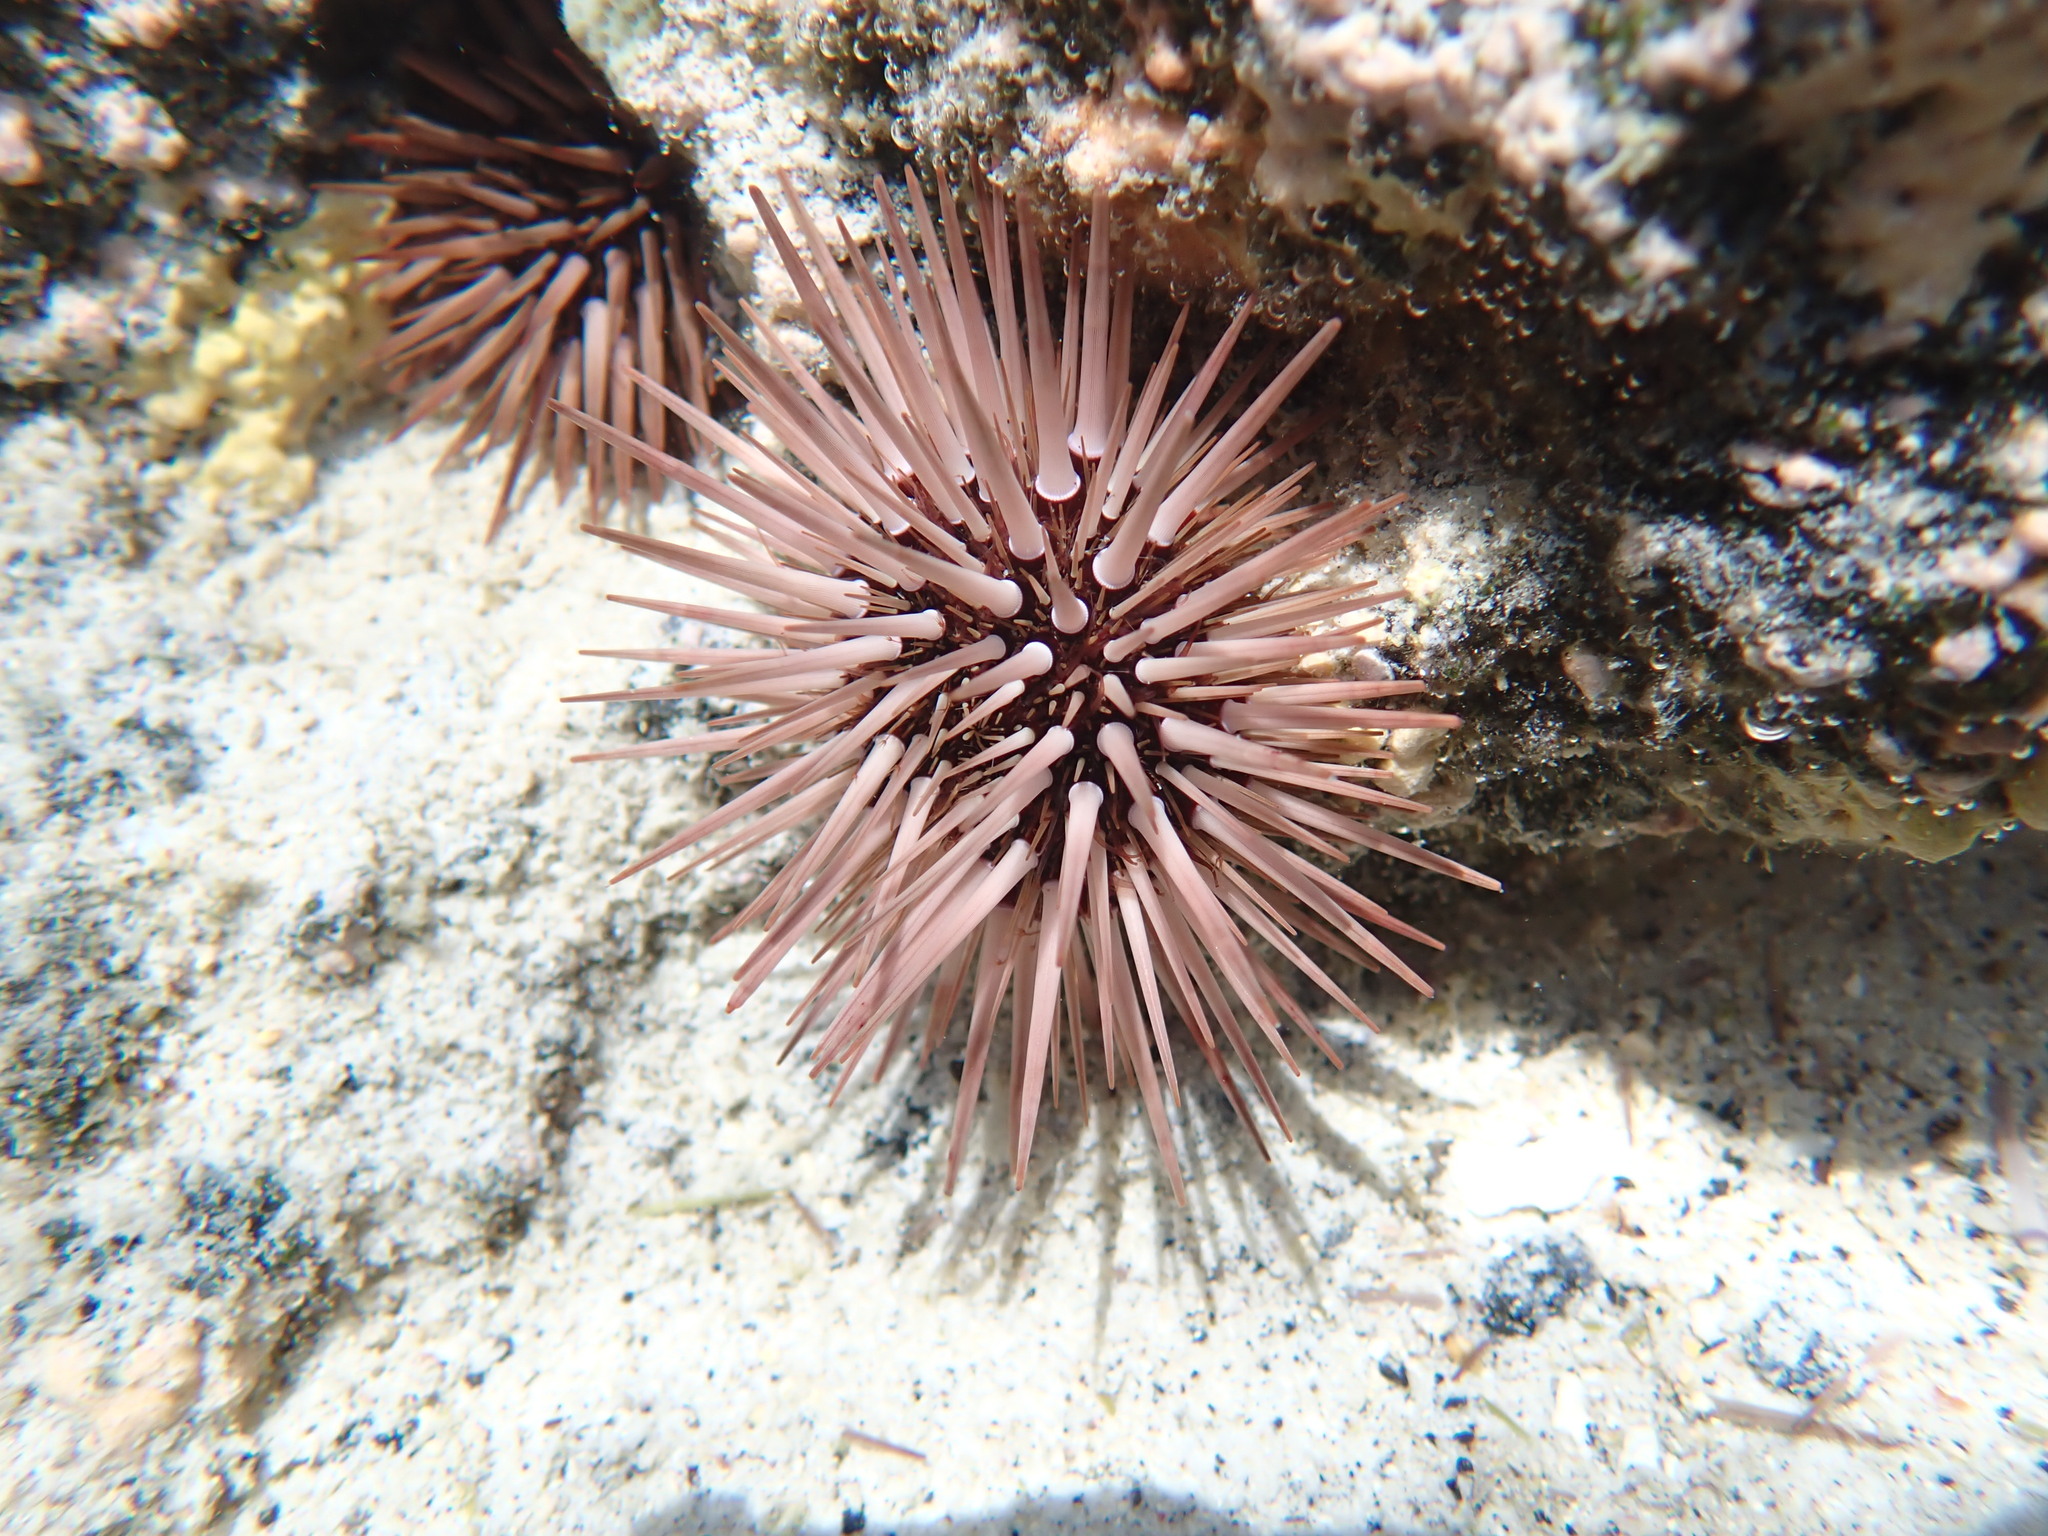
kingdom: Animalia
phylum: Echinodermata
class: Echinoidea
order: Camarodonta
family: Echinometridae
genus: Echinometra
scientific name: Echinometra mathaei
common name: Rock-boring urchin
